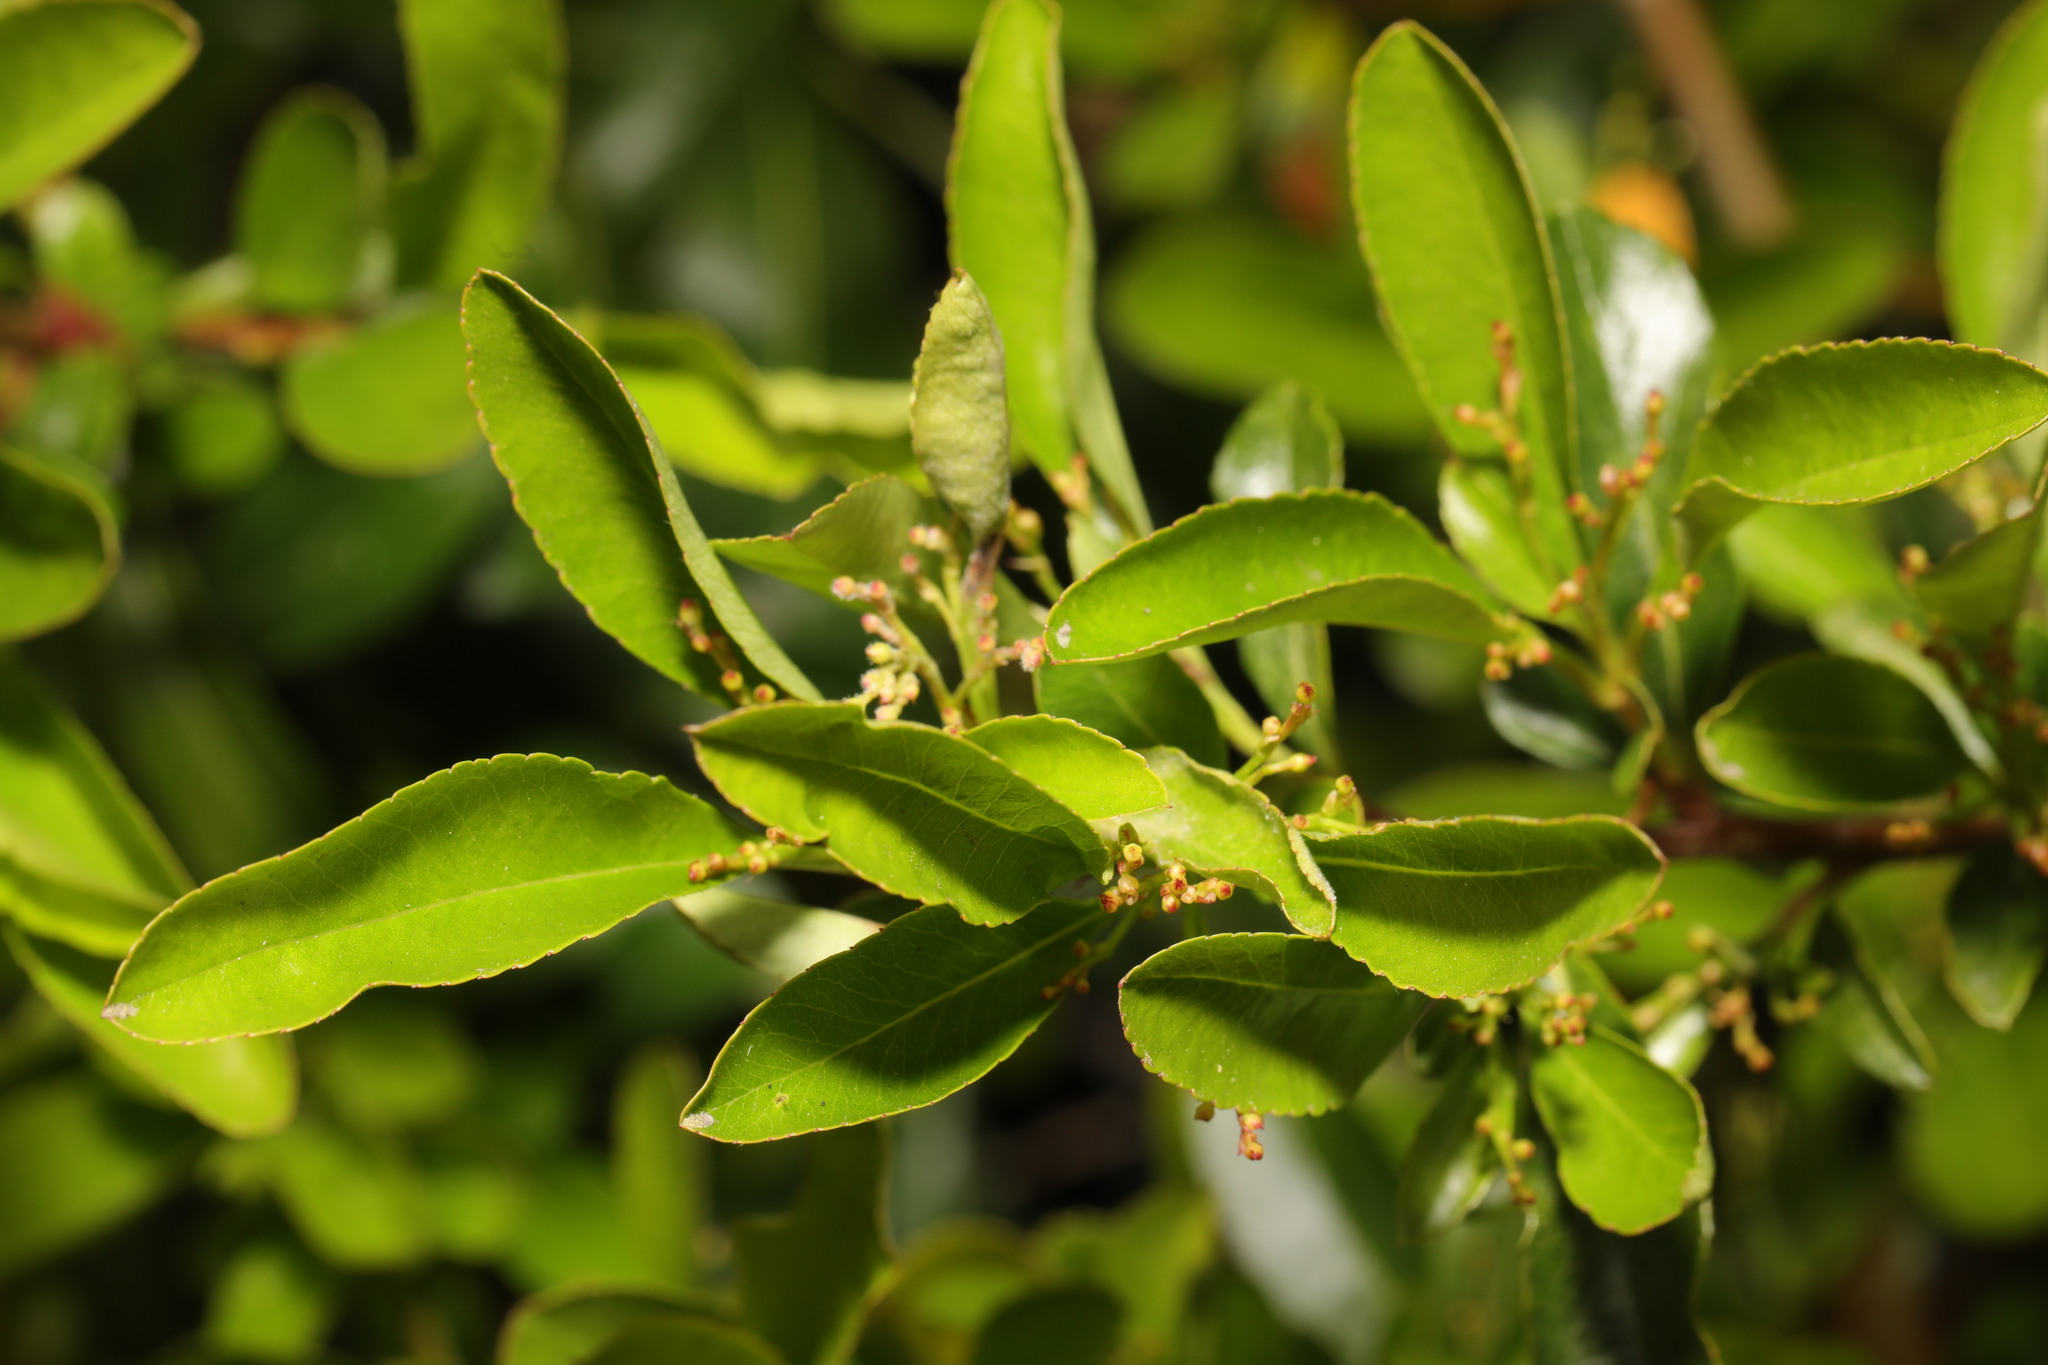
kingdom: Plantae
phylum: Tracheophyta
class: Magnoliopsida
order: Rosales
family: Rosaceae
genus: Pyracantha
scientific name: Pyracantha coccinea
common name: Firethorn
